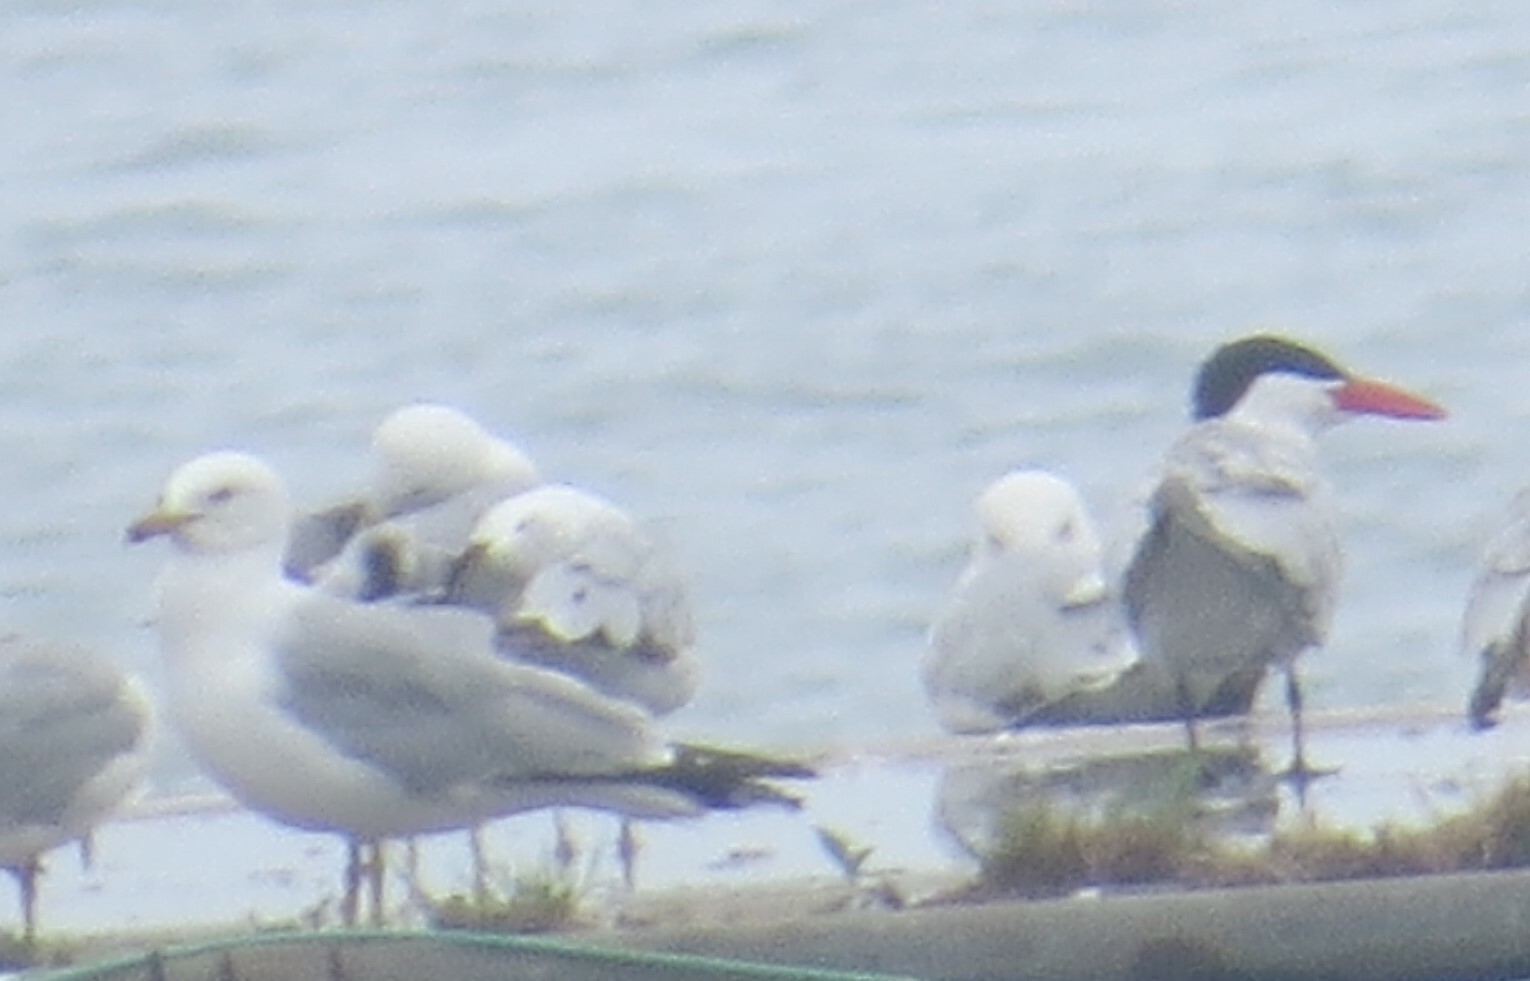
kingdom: Animalia
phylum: Chordata
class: Aves
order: Charadriiformes
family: Laridae
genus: Hydroprogne
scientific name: Hydroprogne caspia
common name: Caspian tern
